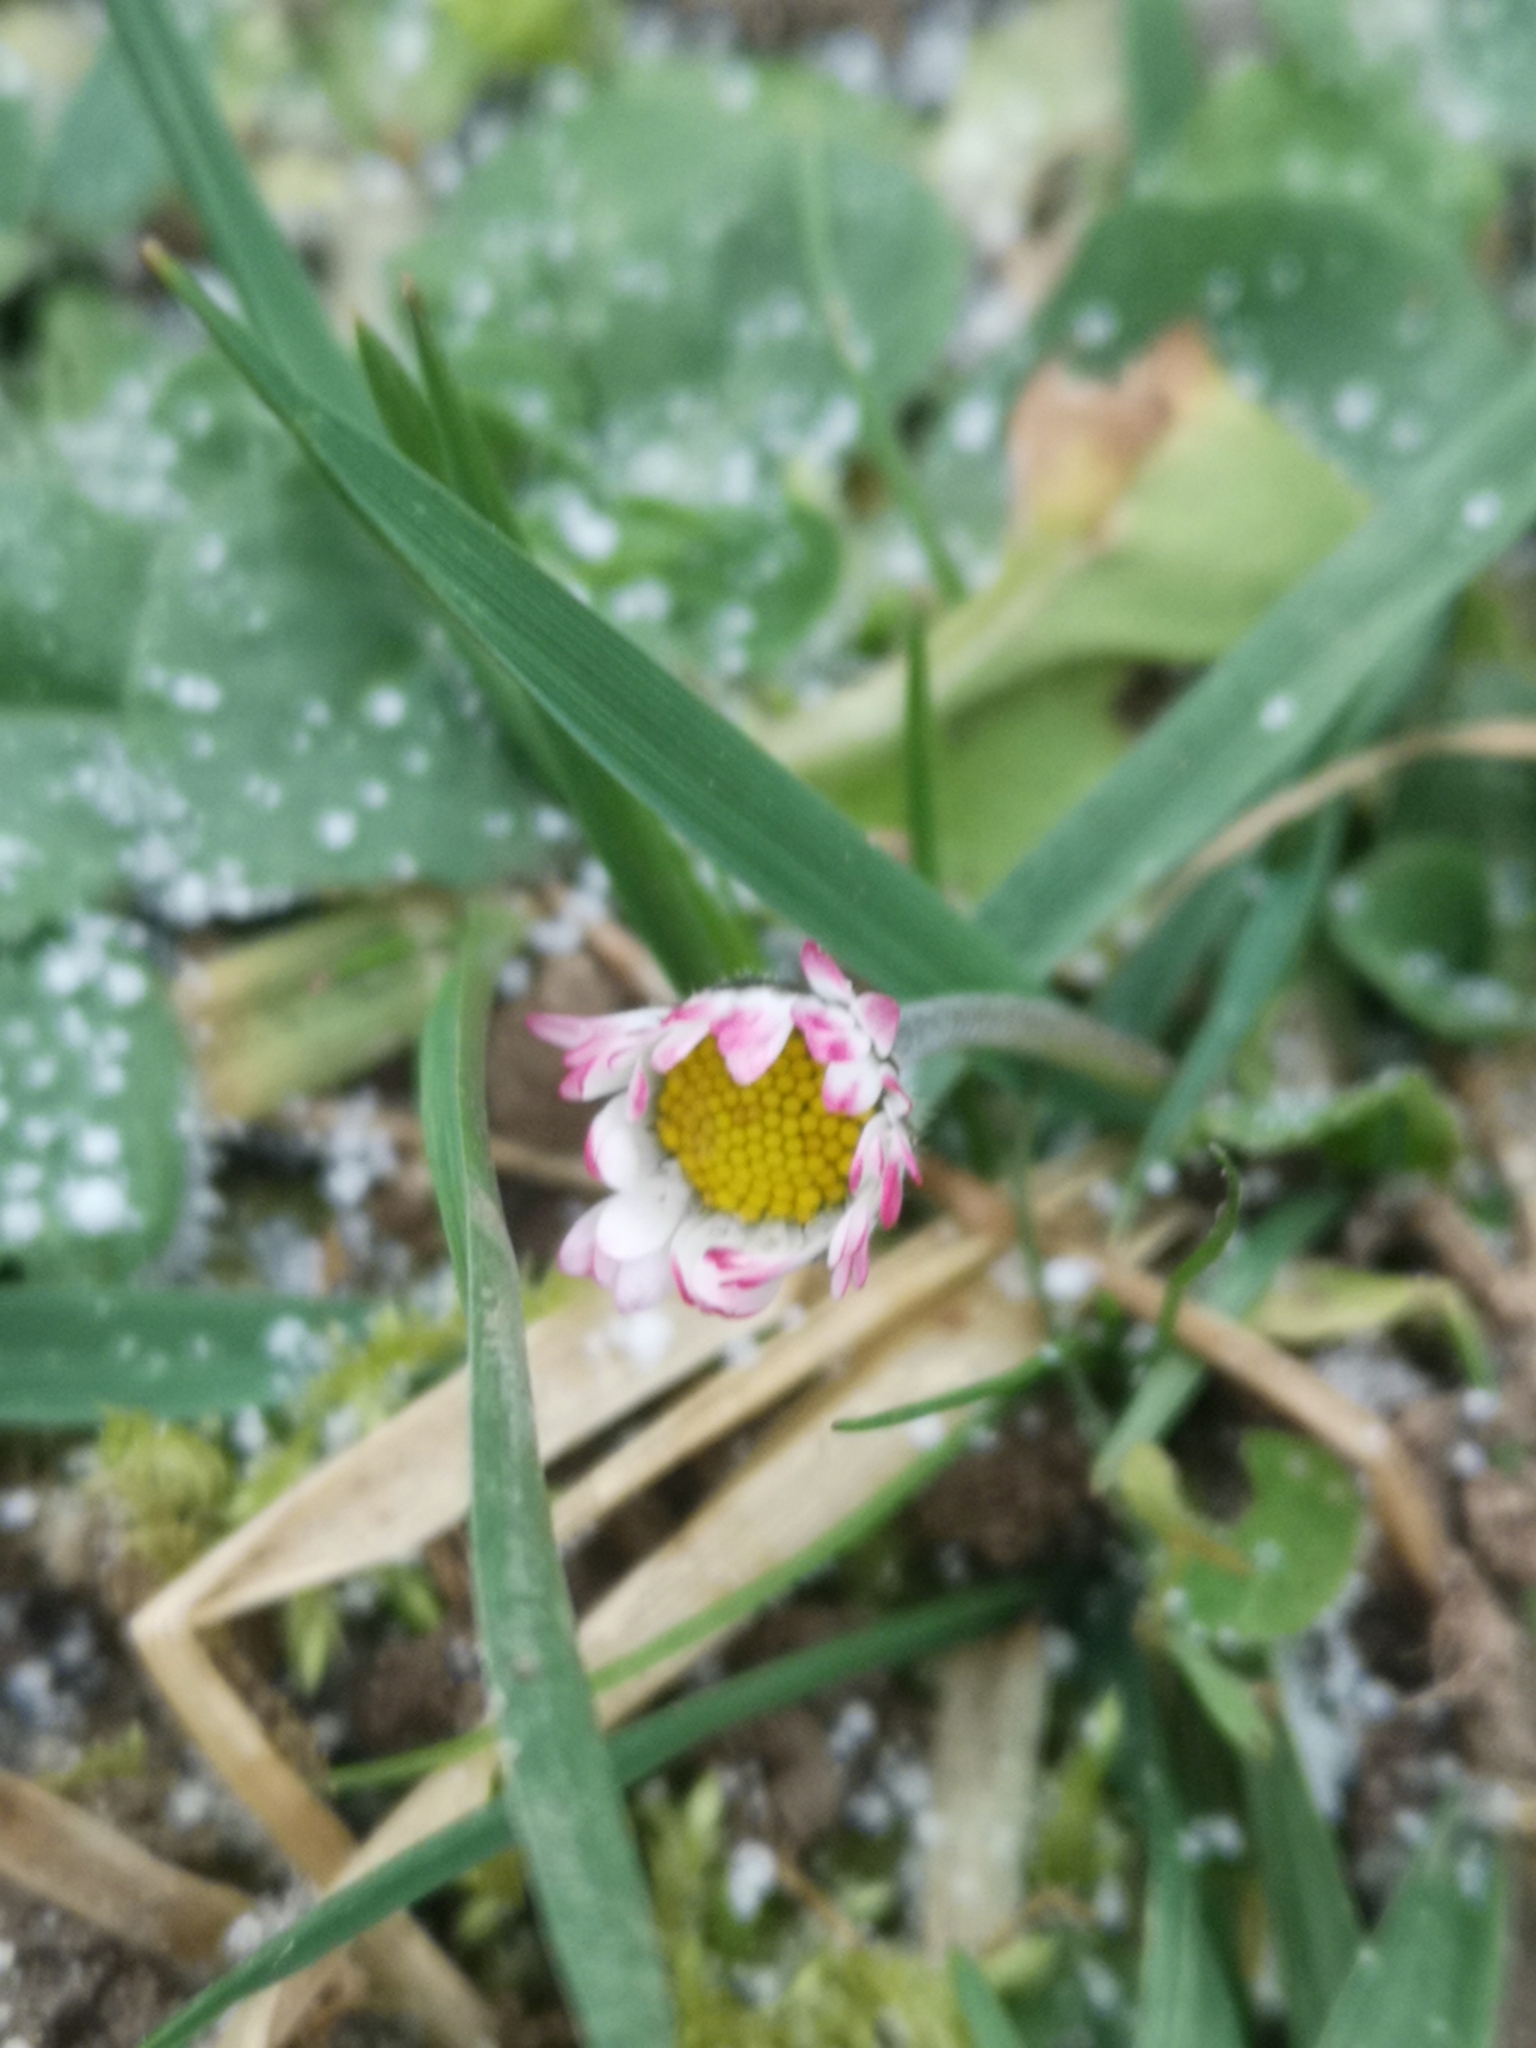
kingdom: Plantae
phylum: Tracheophyta
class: Magnoliopsida
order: Asterales
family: Asteraceae
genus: Bellis
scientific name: Bellis perennis
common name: Lawndaisy
